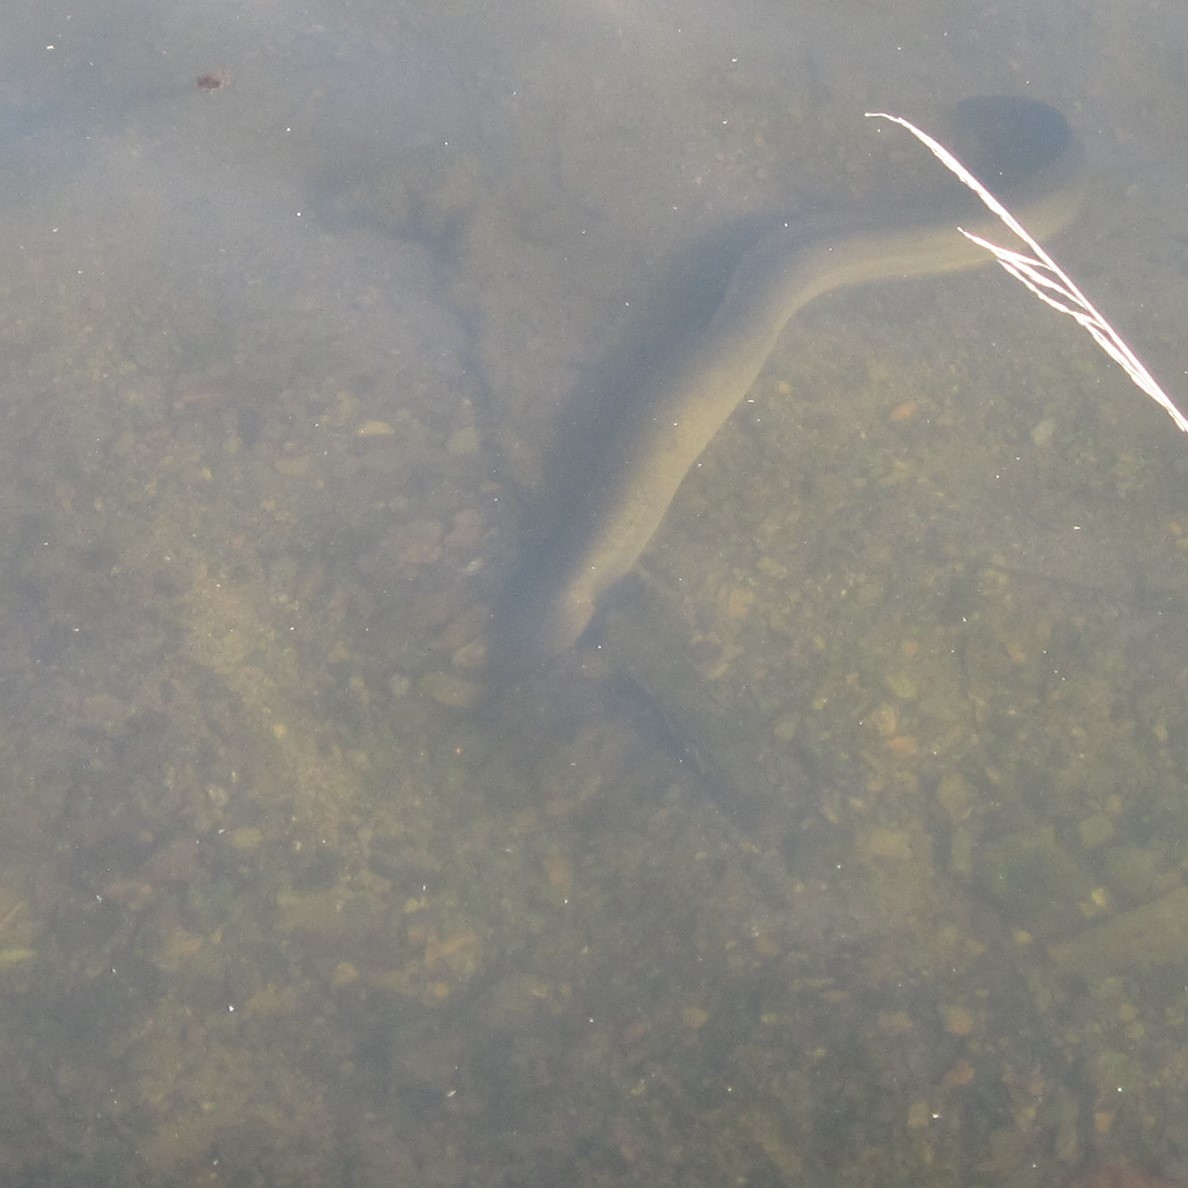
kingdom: Animalia
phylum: Chordata
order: Anguilliformes
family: Anguillidae
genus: Anguilla
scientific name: Anguilla australis
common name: Shortfin eel
